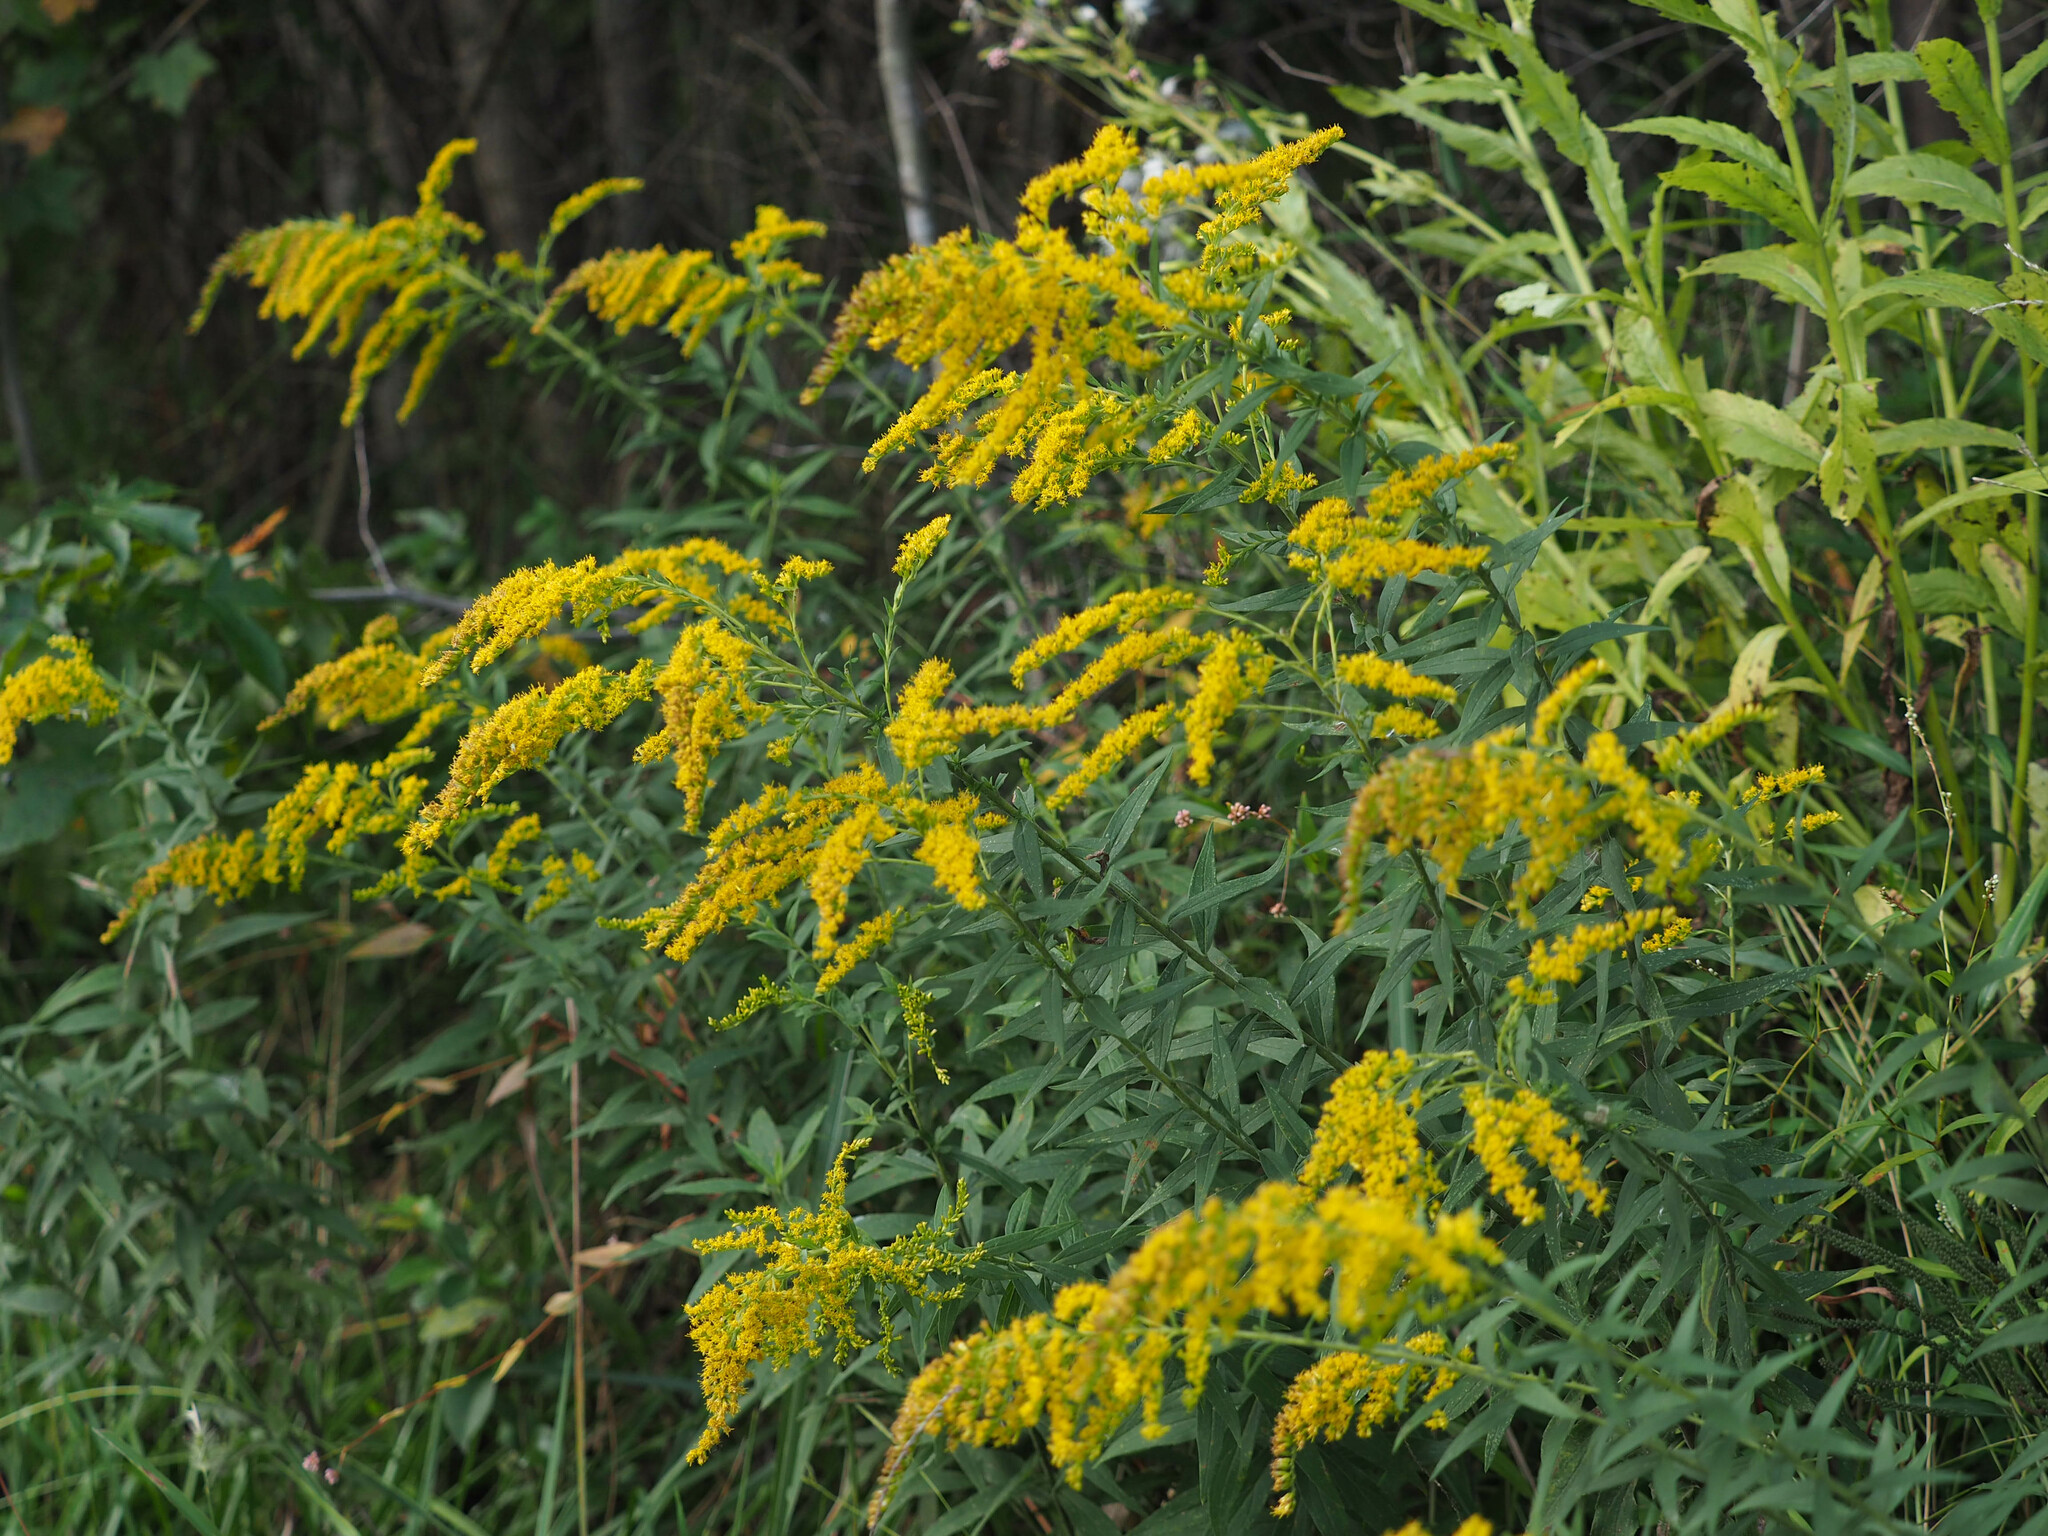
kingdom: Plantae
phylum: Tracheophyta
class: Magnoliopsida
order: Asterales
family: Asteraceae
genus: Solidago
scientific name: Solidago altissima
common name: Late goldenrod
